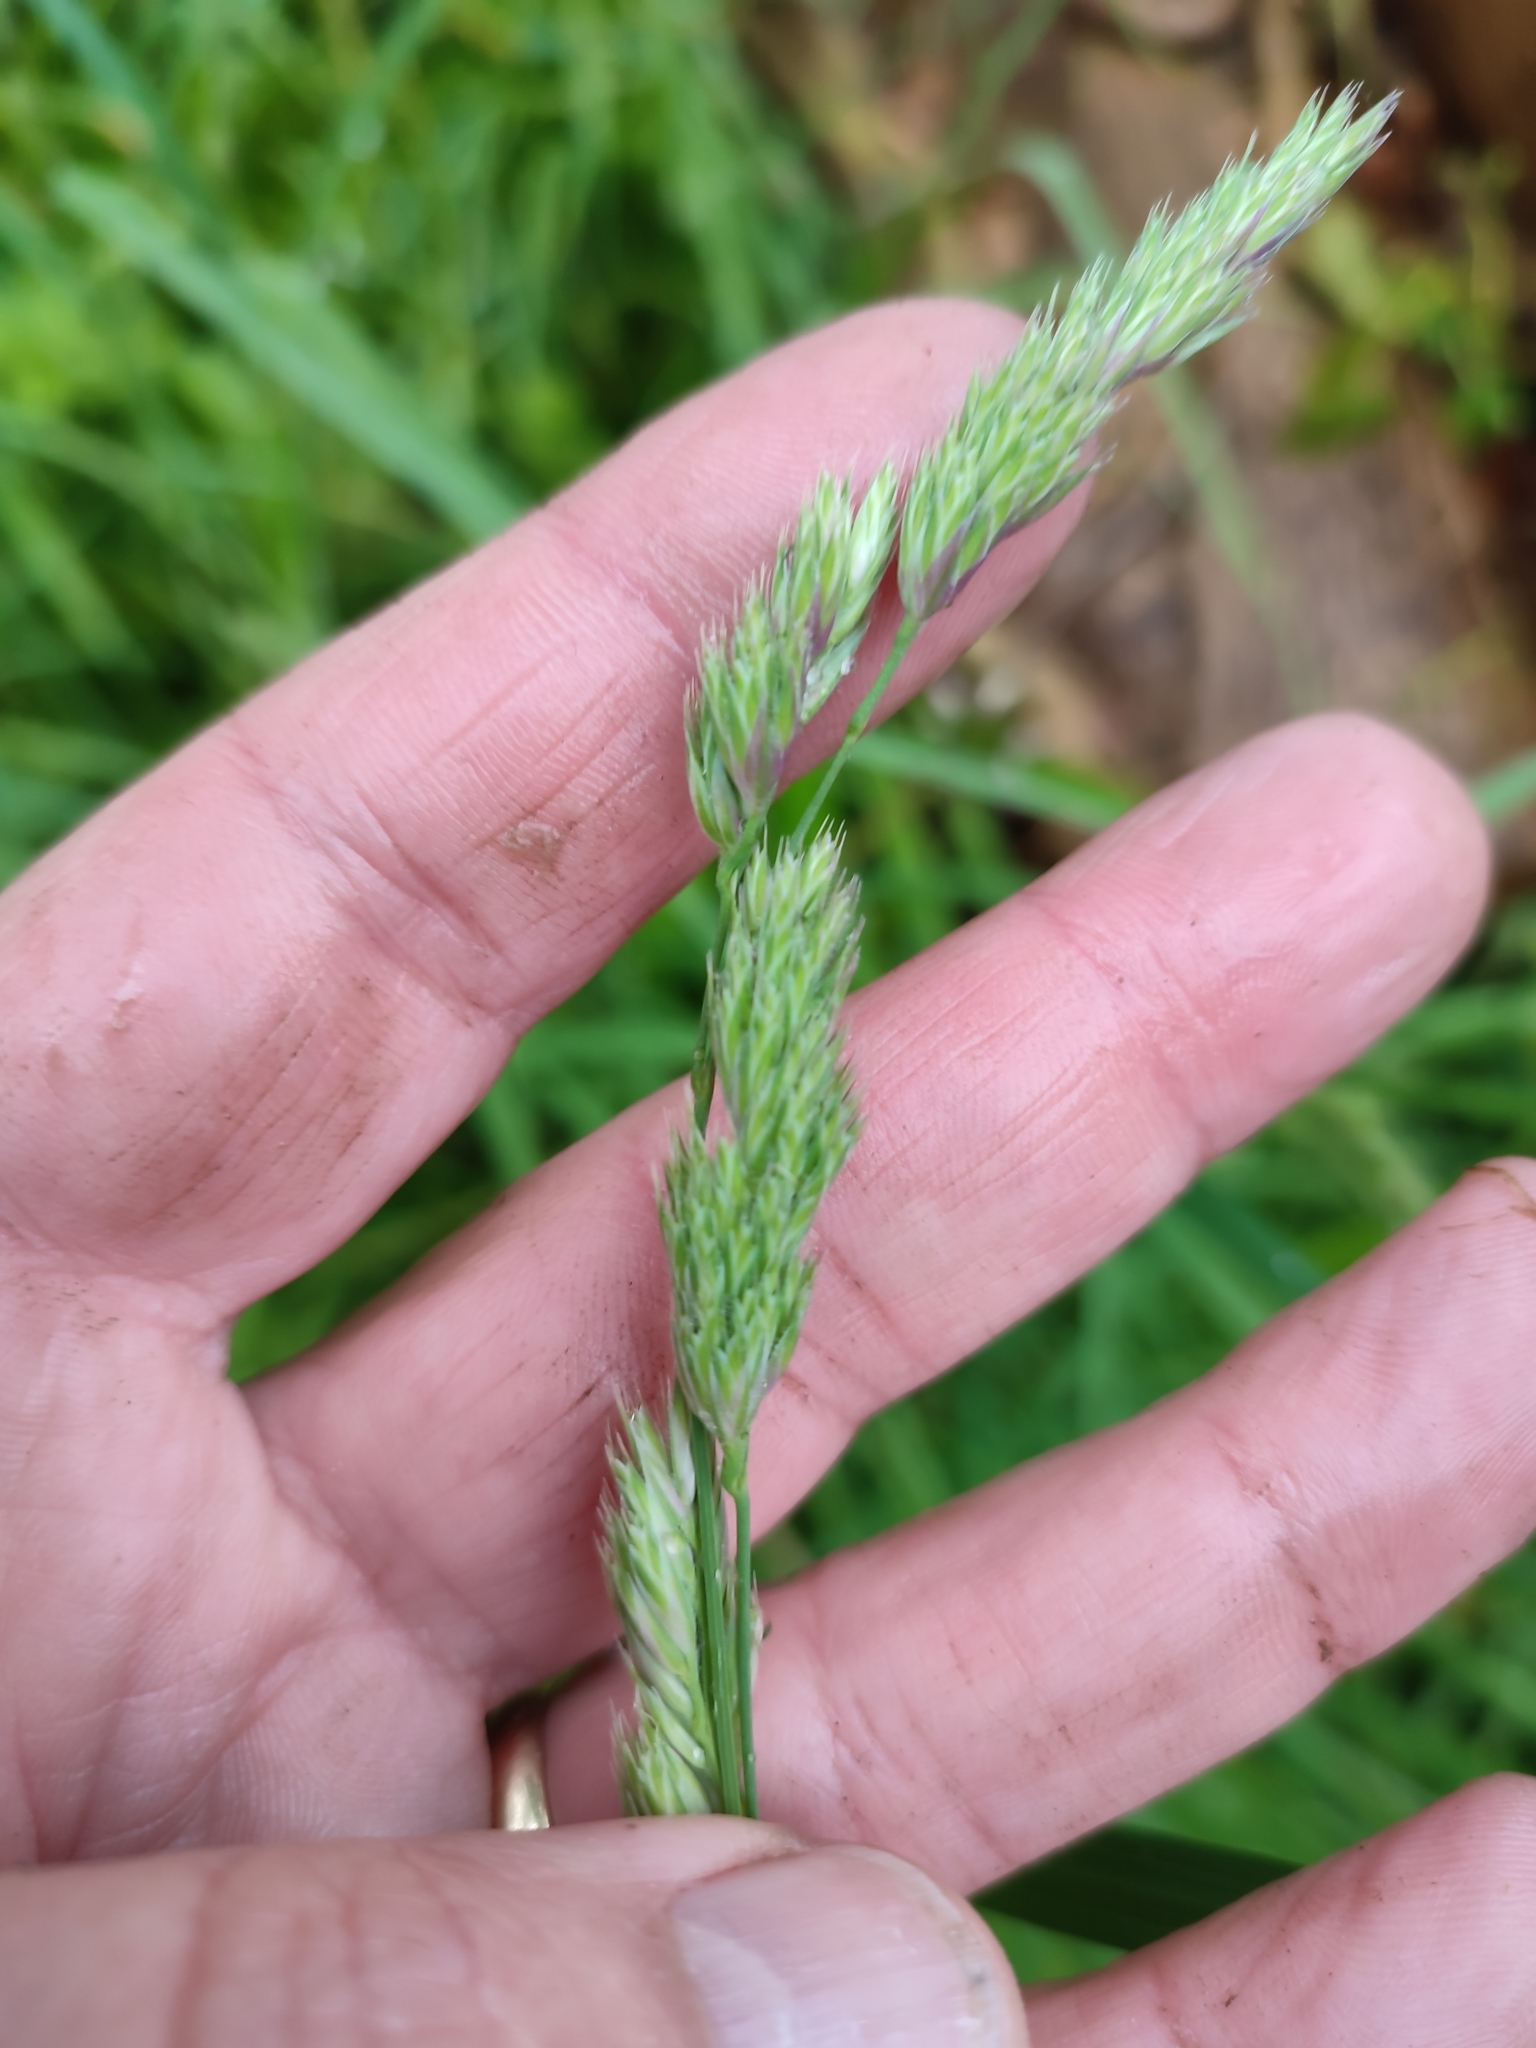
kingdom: Plantae
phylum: Tracheophyta
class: Liliopsida
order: Poales
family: Poaceae
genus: Dactylis
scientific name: Dactylis glomerata
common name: Orchardgrass
